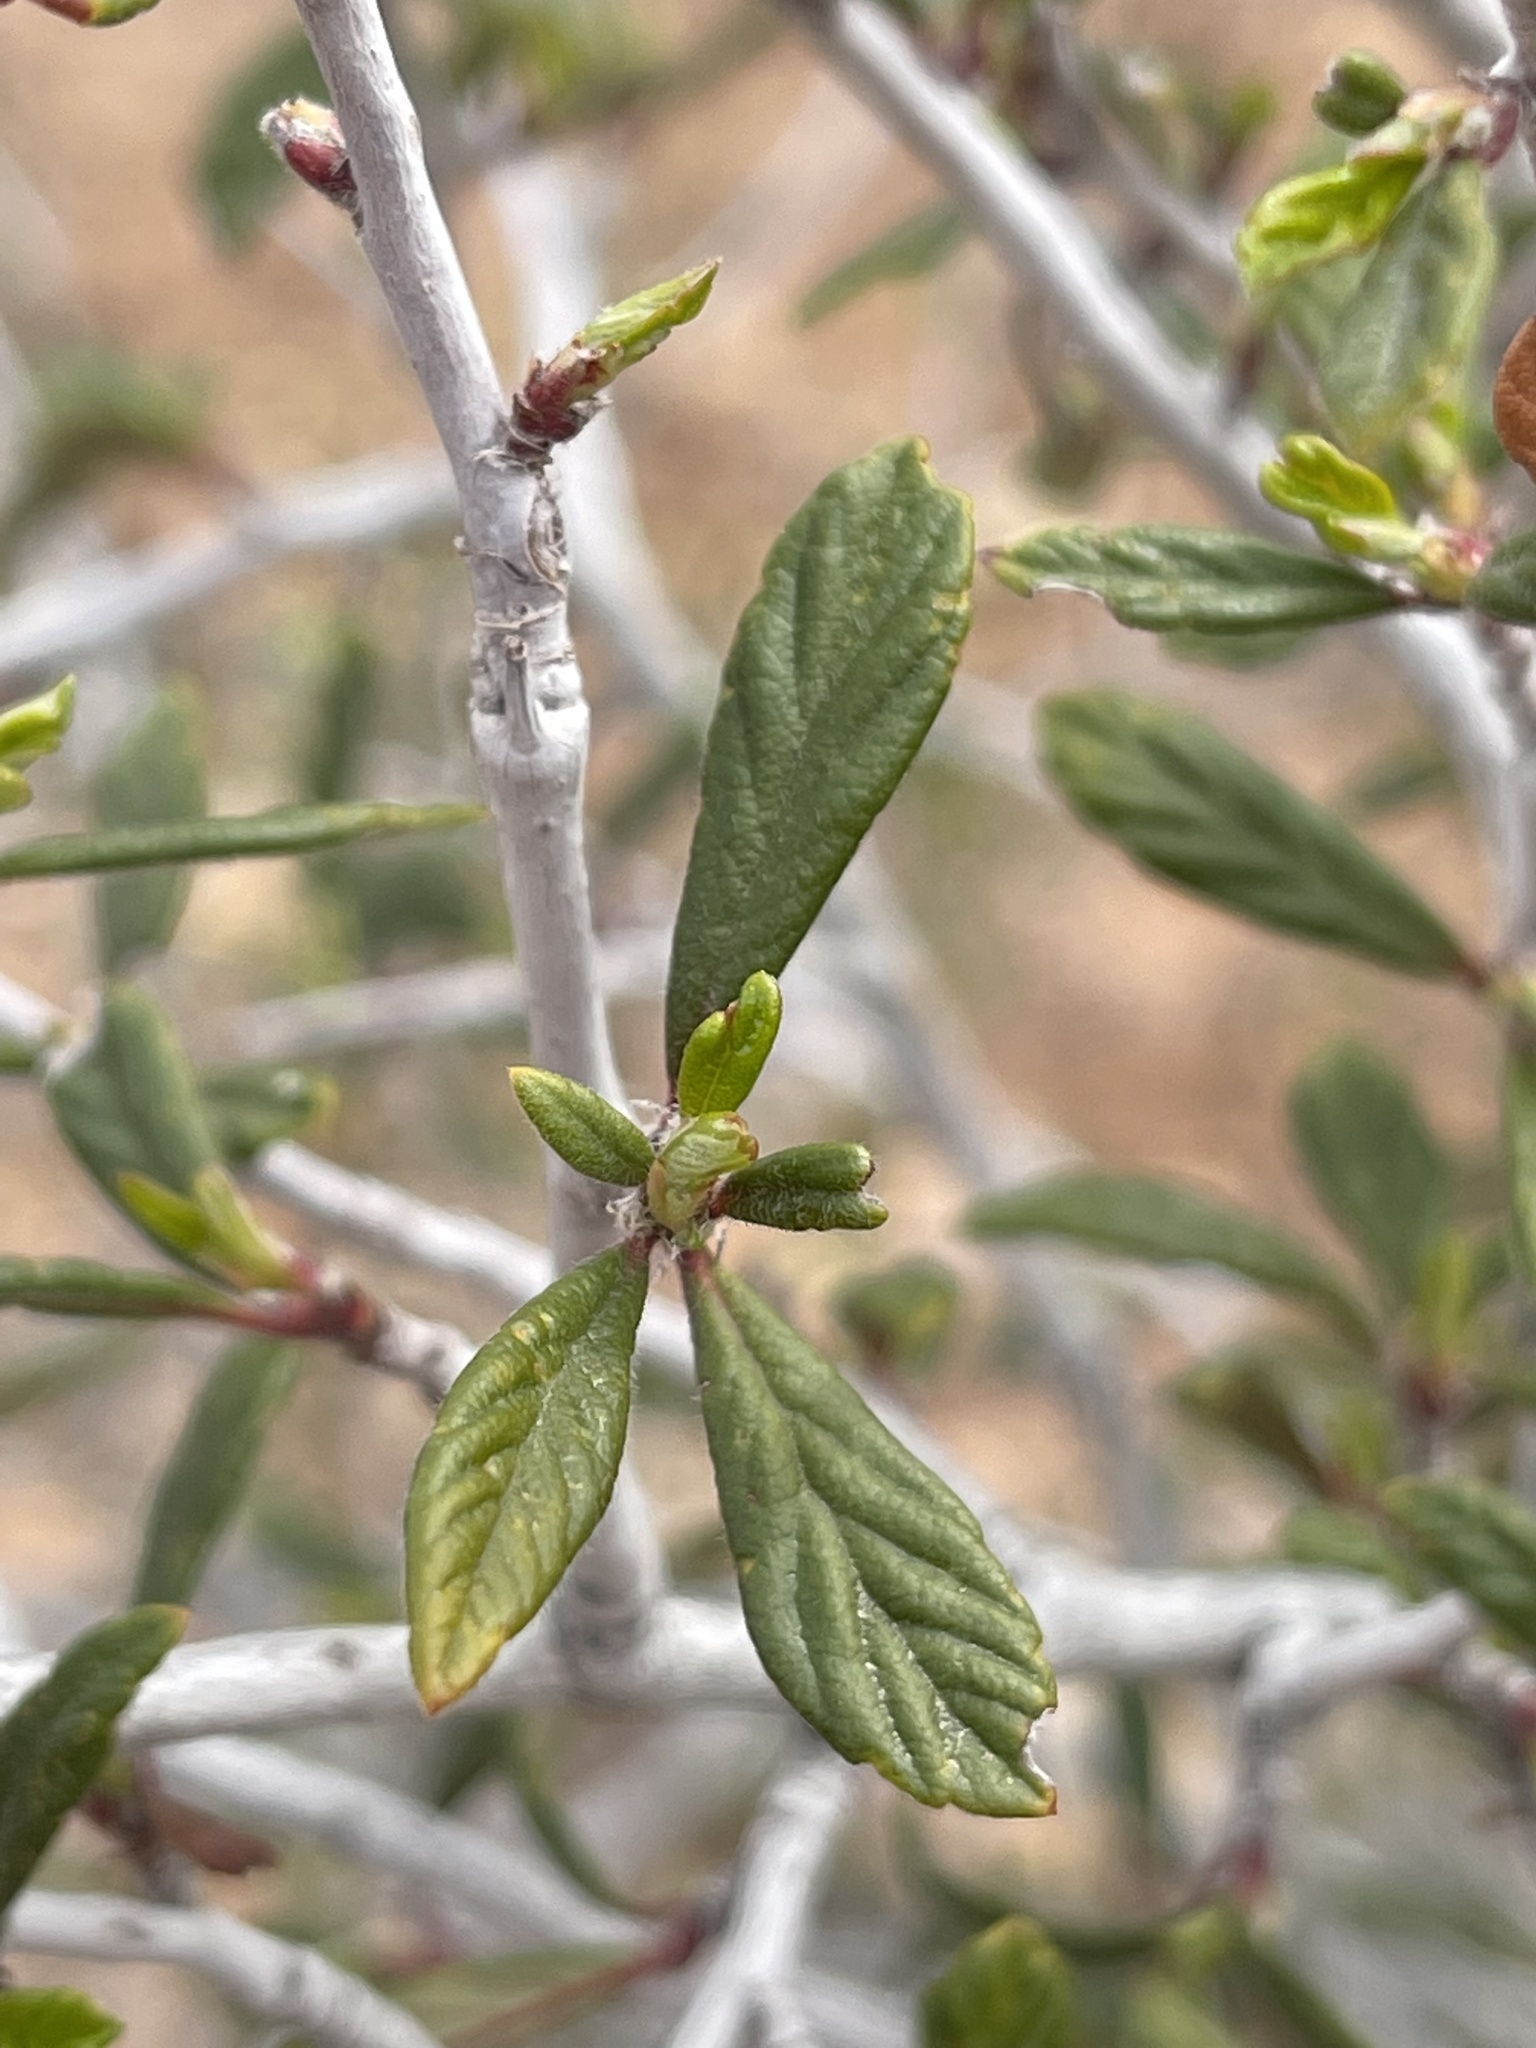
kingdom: Plantae
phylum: Tracheophyta
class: Magnoliopsida
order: Rosales
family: Rosaceae
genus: Cercocarpus
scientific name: Cercocarpus ledifolius
